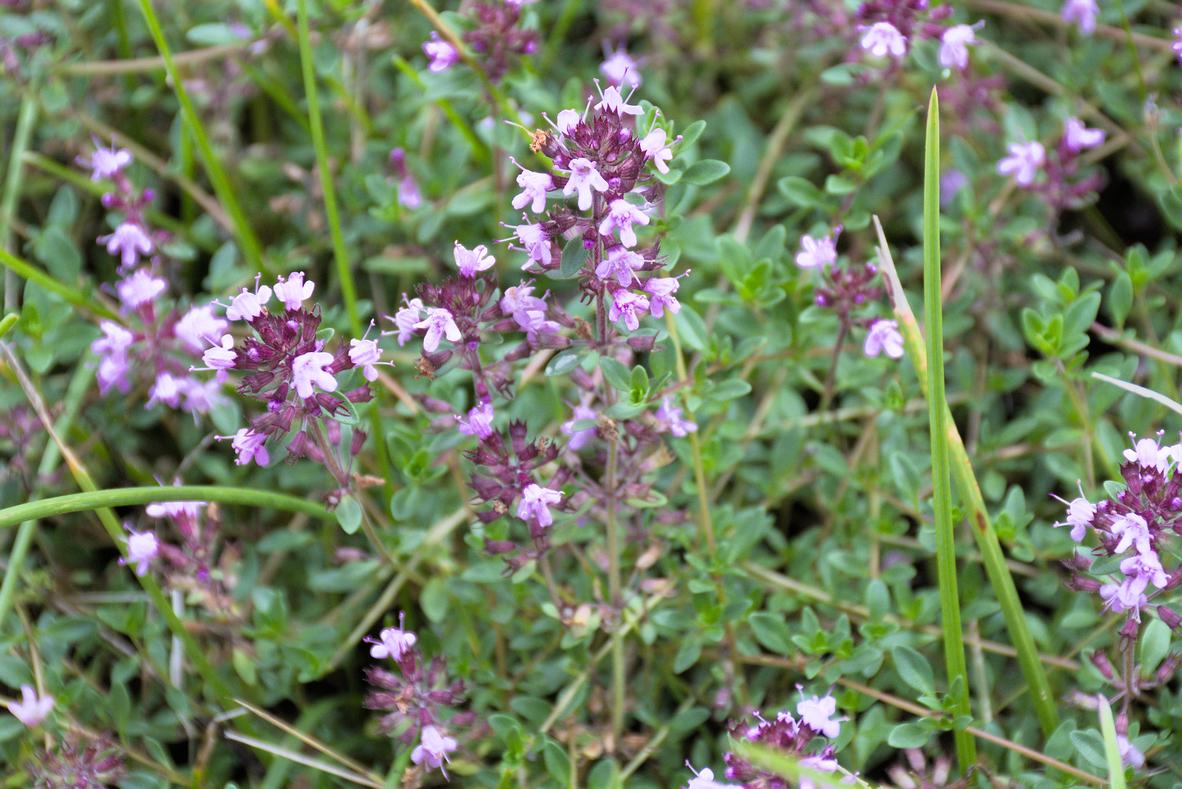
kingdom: Plantae
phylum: Tracheophyta
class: Magnoliopsida
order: Lamiales
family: Lamiaceae
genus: Thymus
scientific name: Thymus pulegioides
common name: Large thyme
